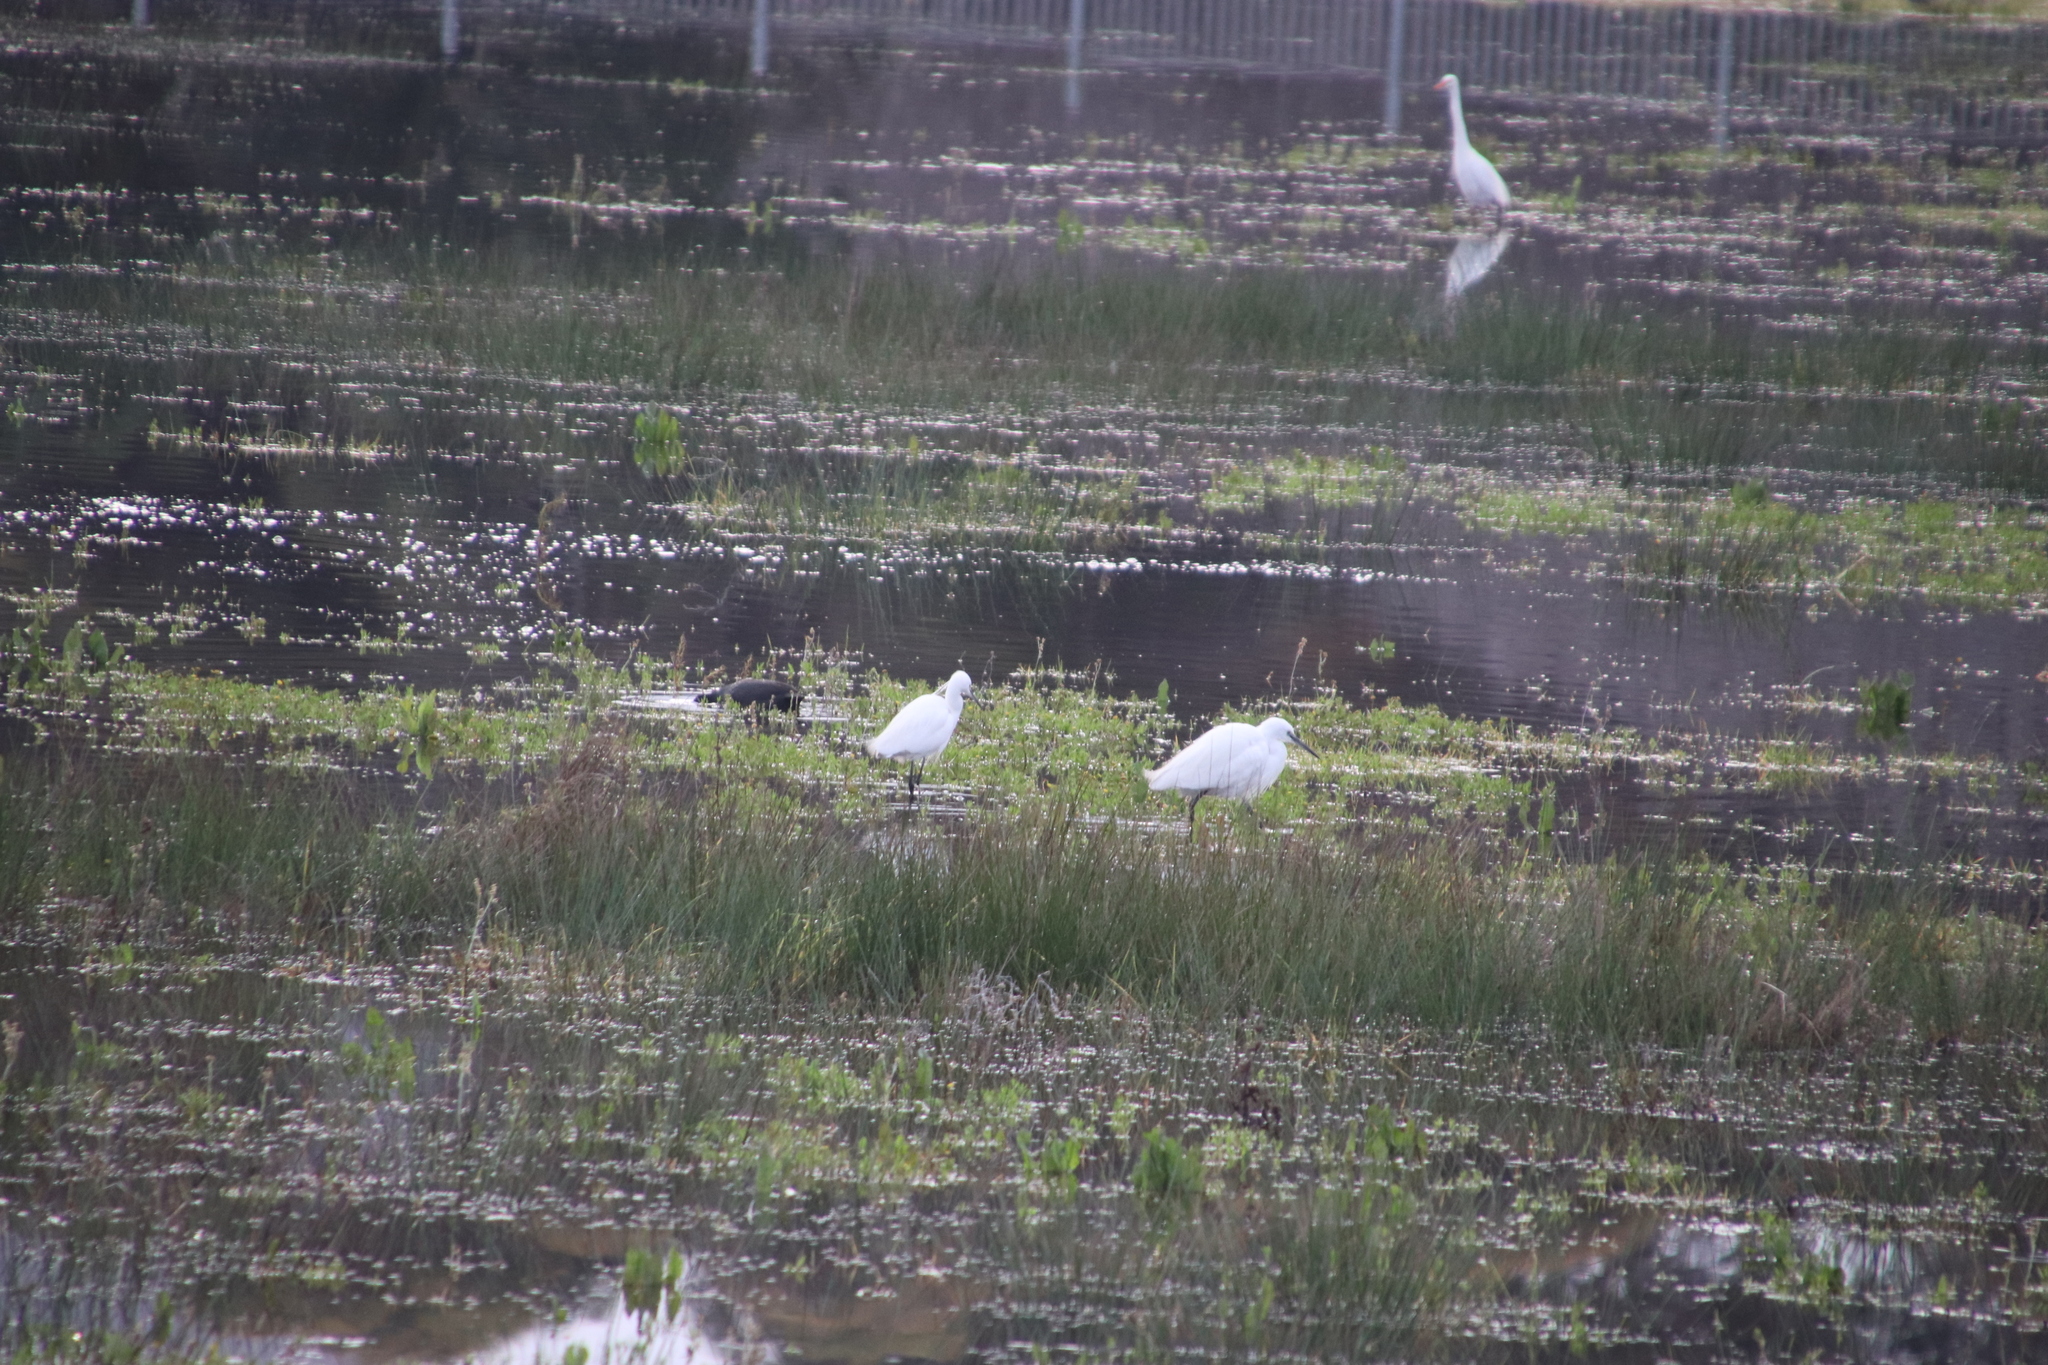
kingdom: Animalia
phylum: Chordata
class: Aves
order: Pelecaniformes
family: Ardeidae
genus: Egretta
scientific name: Egretta garzetta
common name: Little egret
